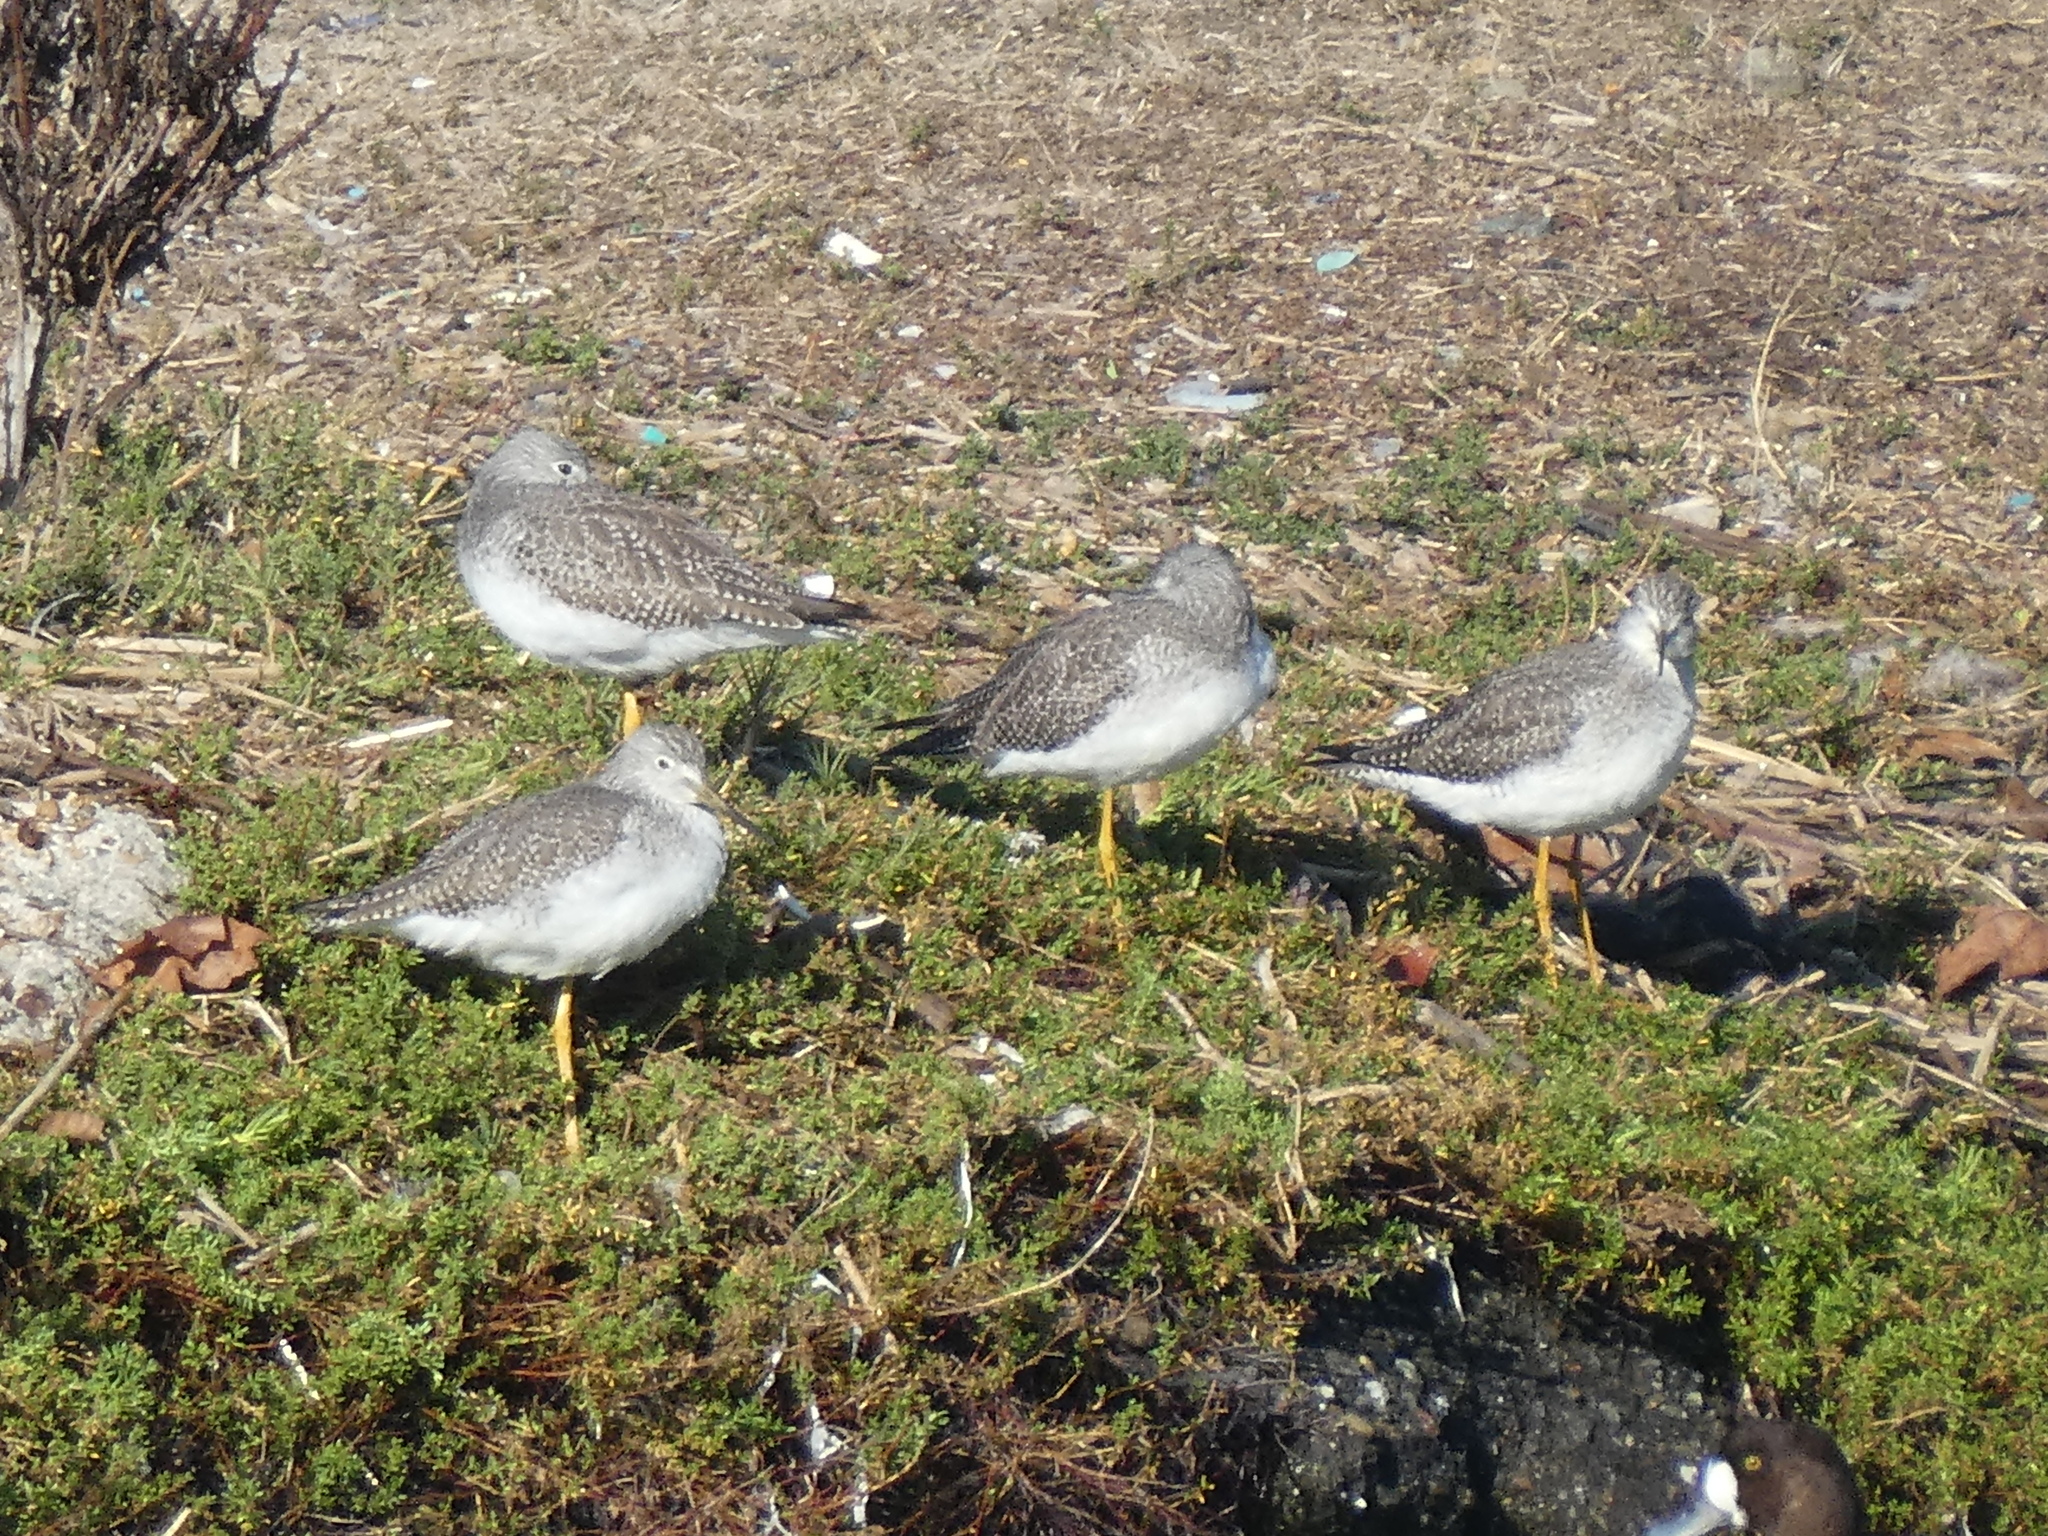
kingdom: Animalia
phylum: Chordata
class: Aves
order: Charadriiformes
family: Scolopacidae
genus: Tringa
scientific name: Tringa melanoleuca
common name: Greater yellowlegs
